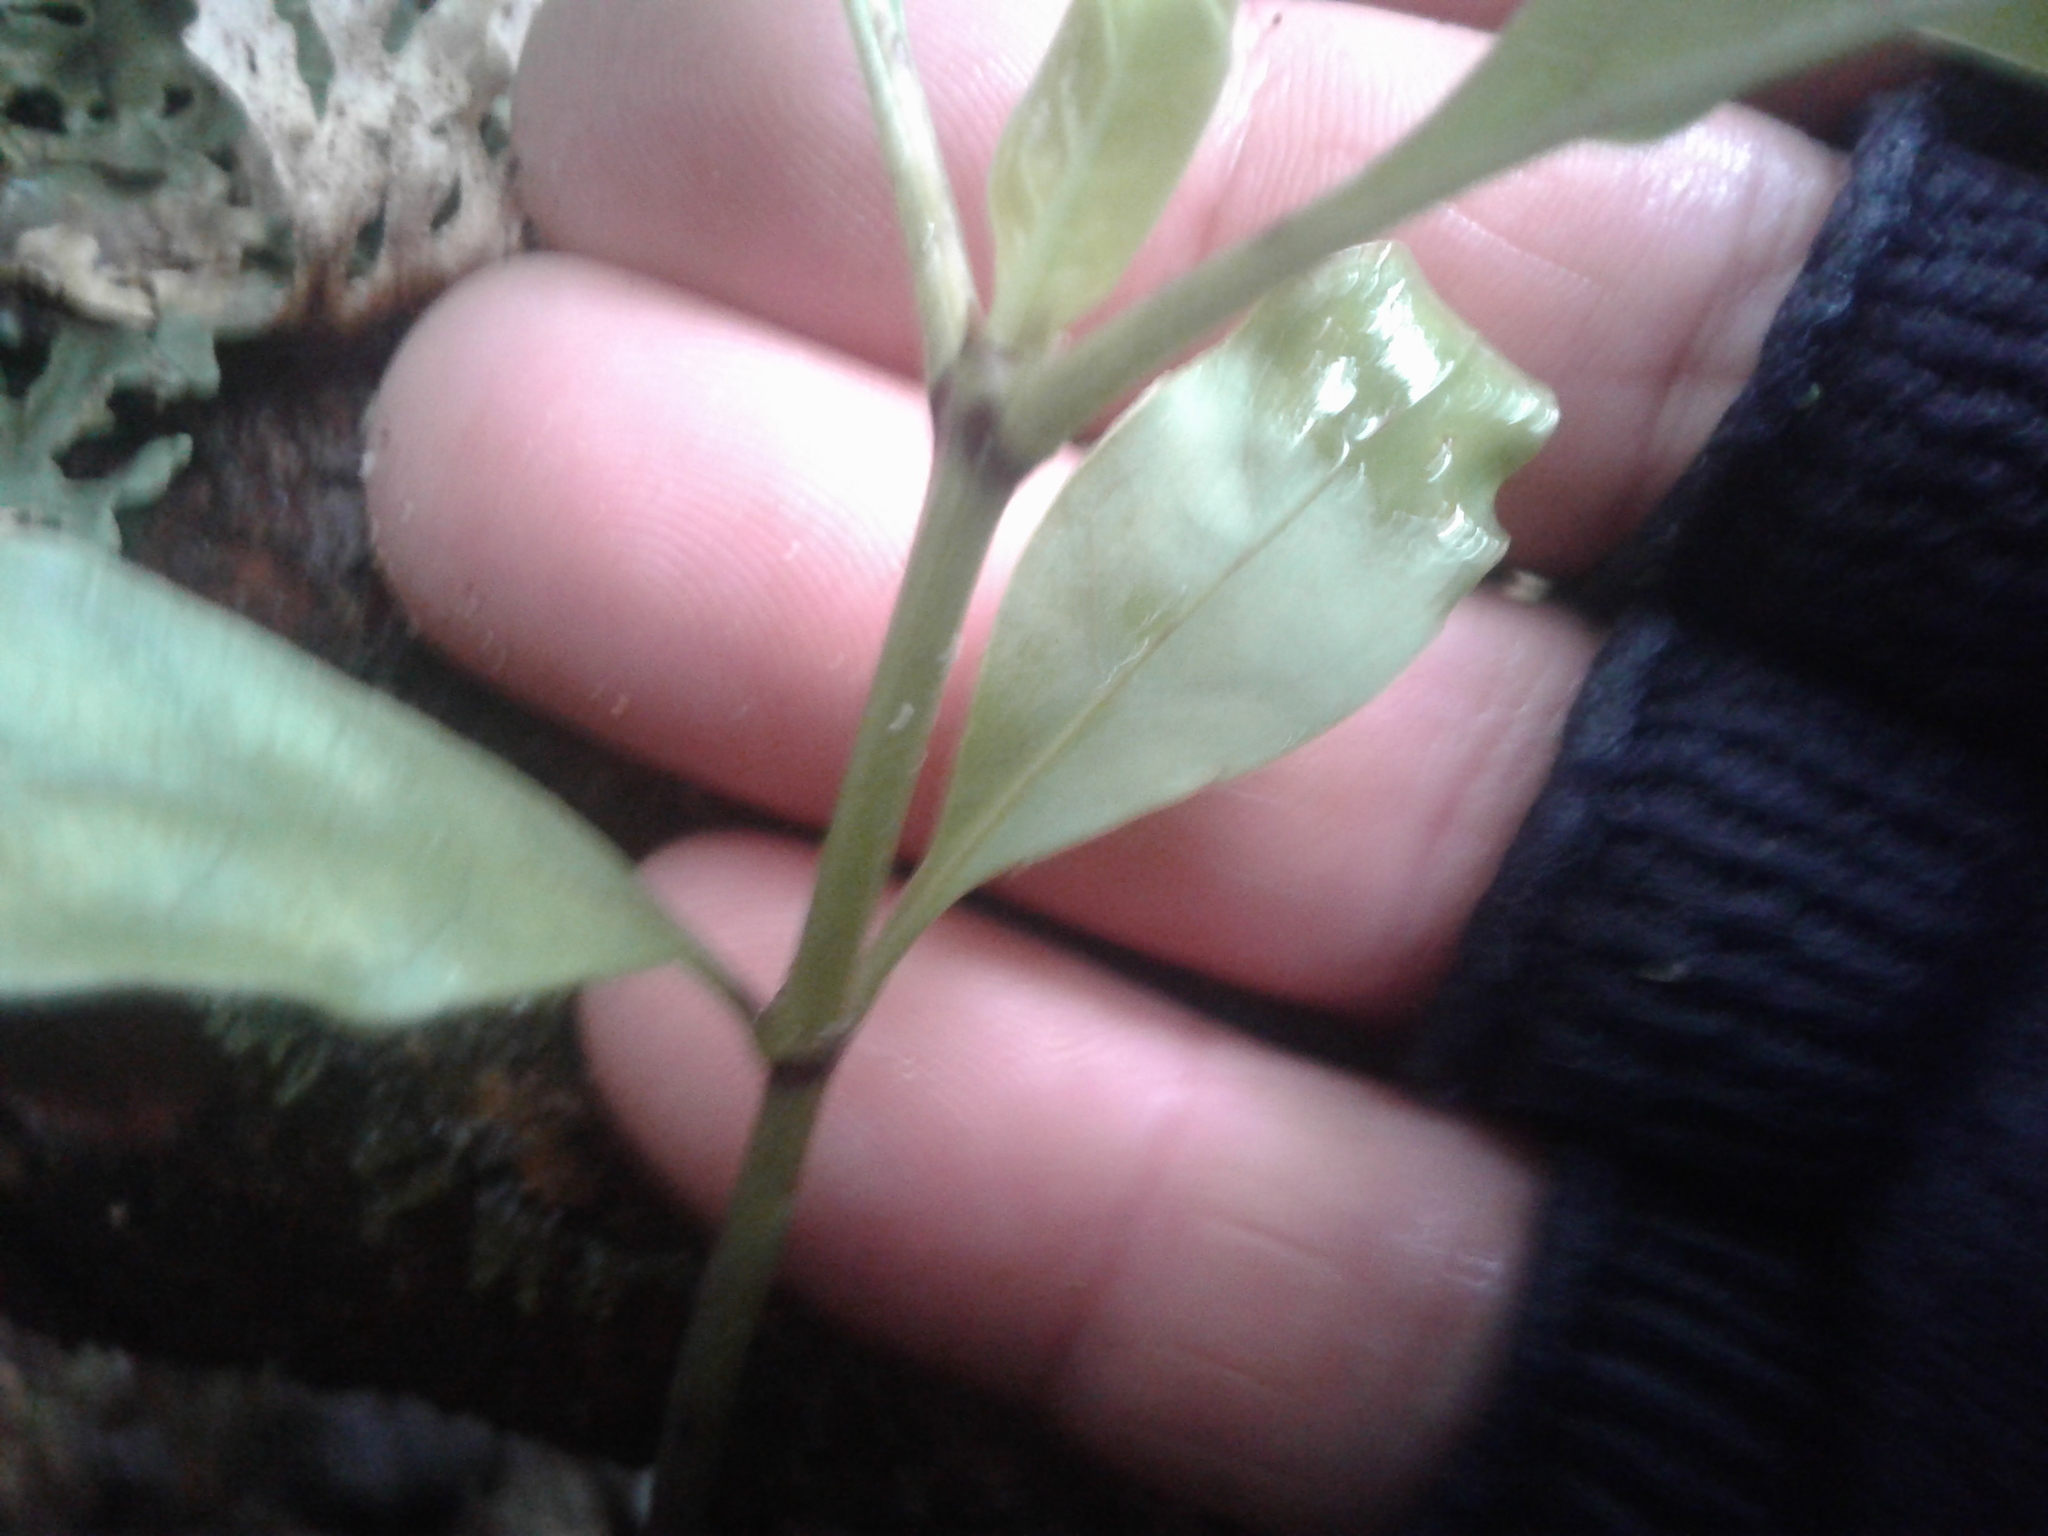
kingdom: Plantae
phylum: Tracheophyta
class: Magnoliopsida
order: Gentianales
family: Rubiaceae
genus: Coprosma
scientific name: Coprosma autumnalis
